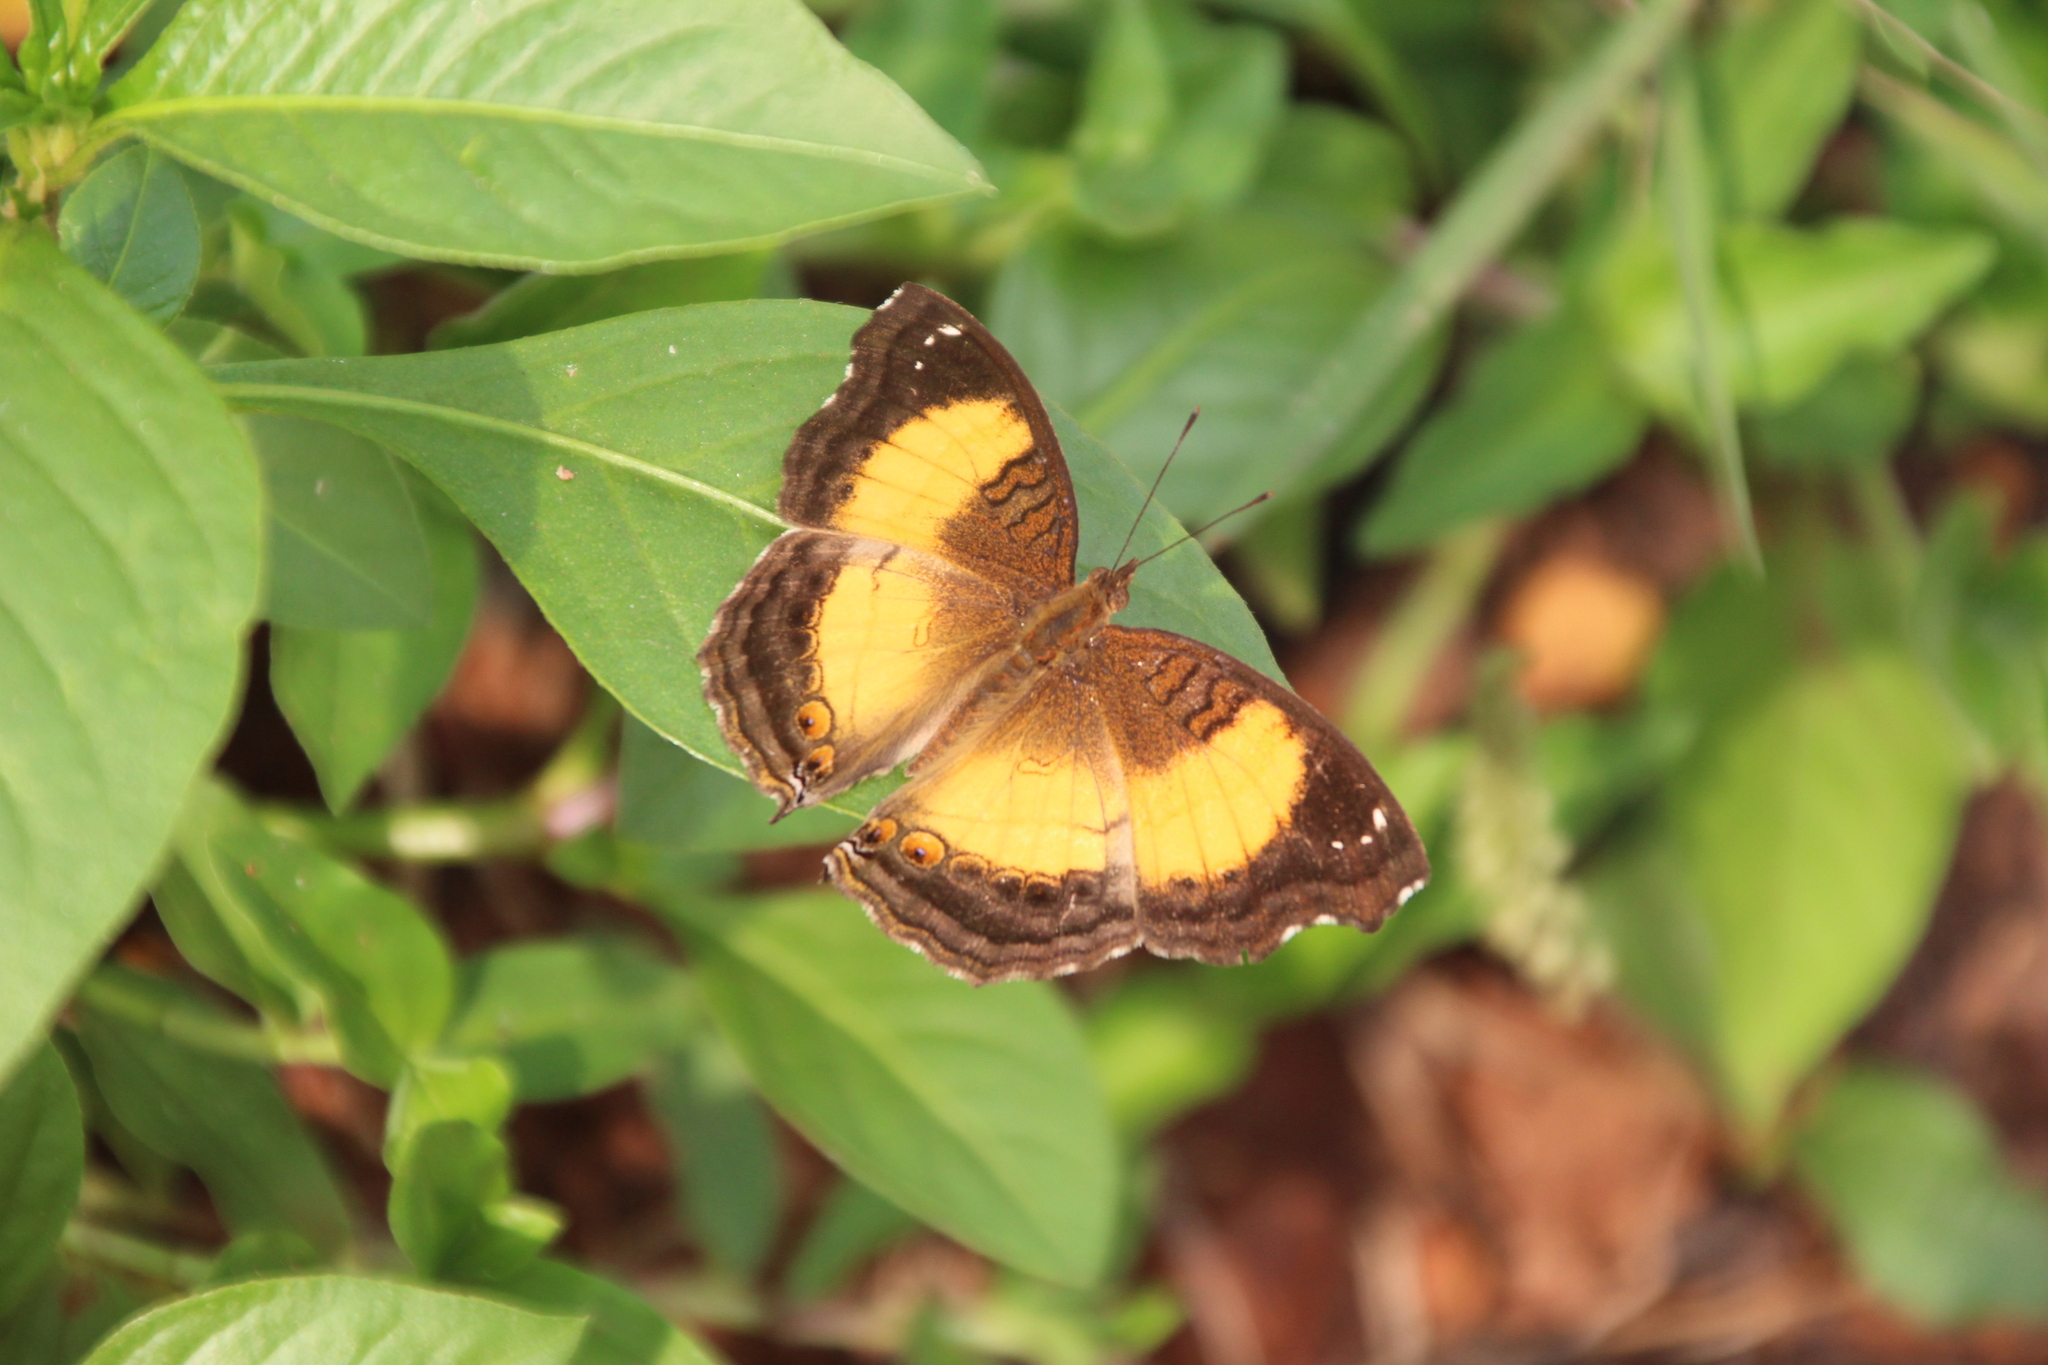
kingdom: Animalia
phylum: Arthropoda
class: Insecta
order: Lepidoptera
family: Nymphalidae
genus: Junonia
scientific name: Junonia terea
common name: Soldier pansy
